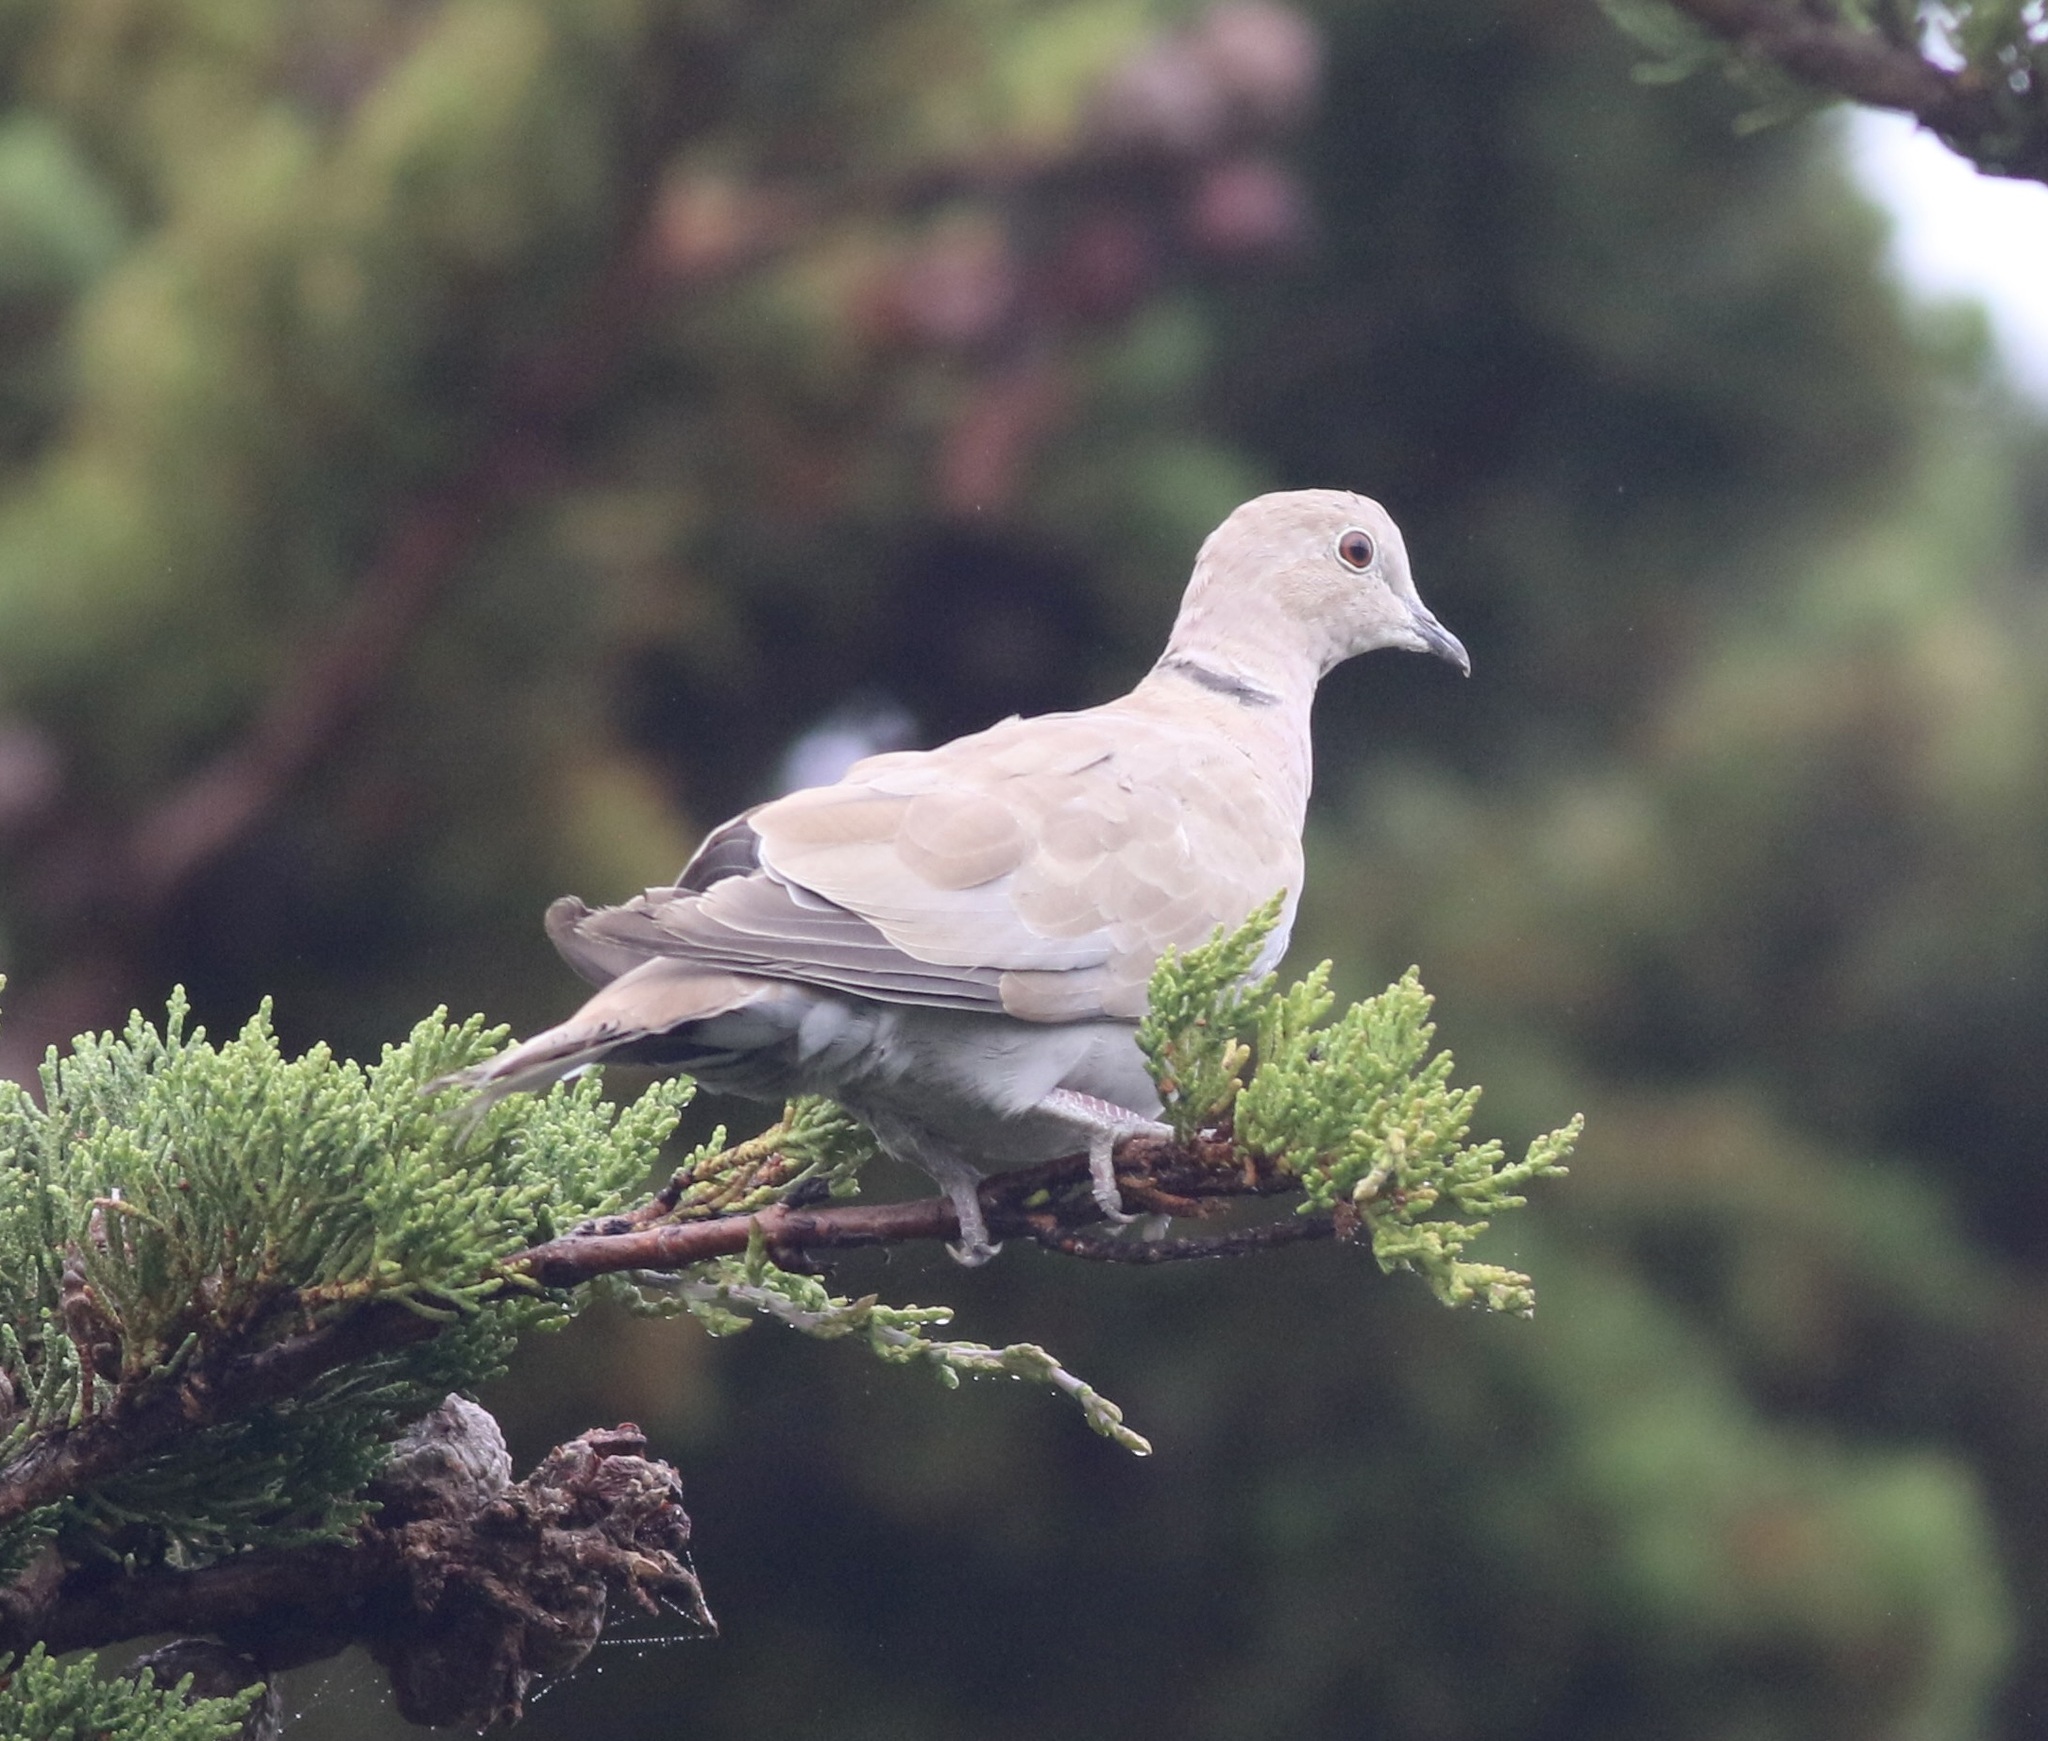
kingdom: Animalia
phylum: Chordata
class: Aves
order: Columbiformes
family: Columbidae
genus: Streptopelia
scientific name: Streptopelia decaocto
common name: Eurasian collared dove
